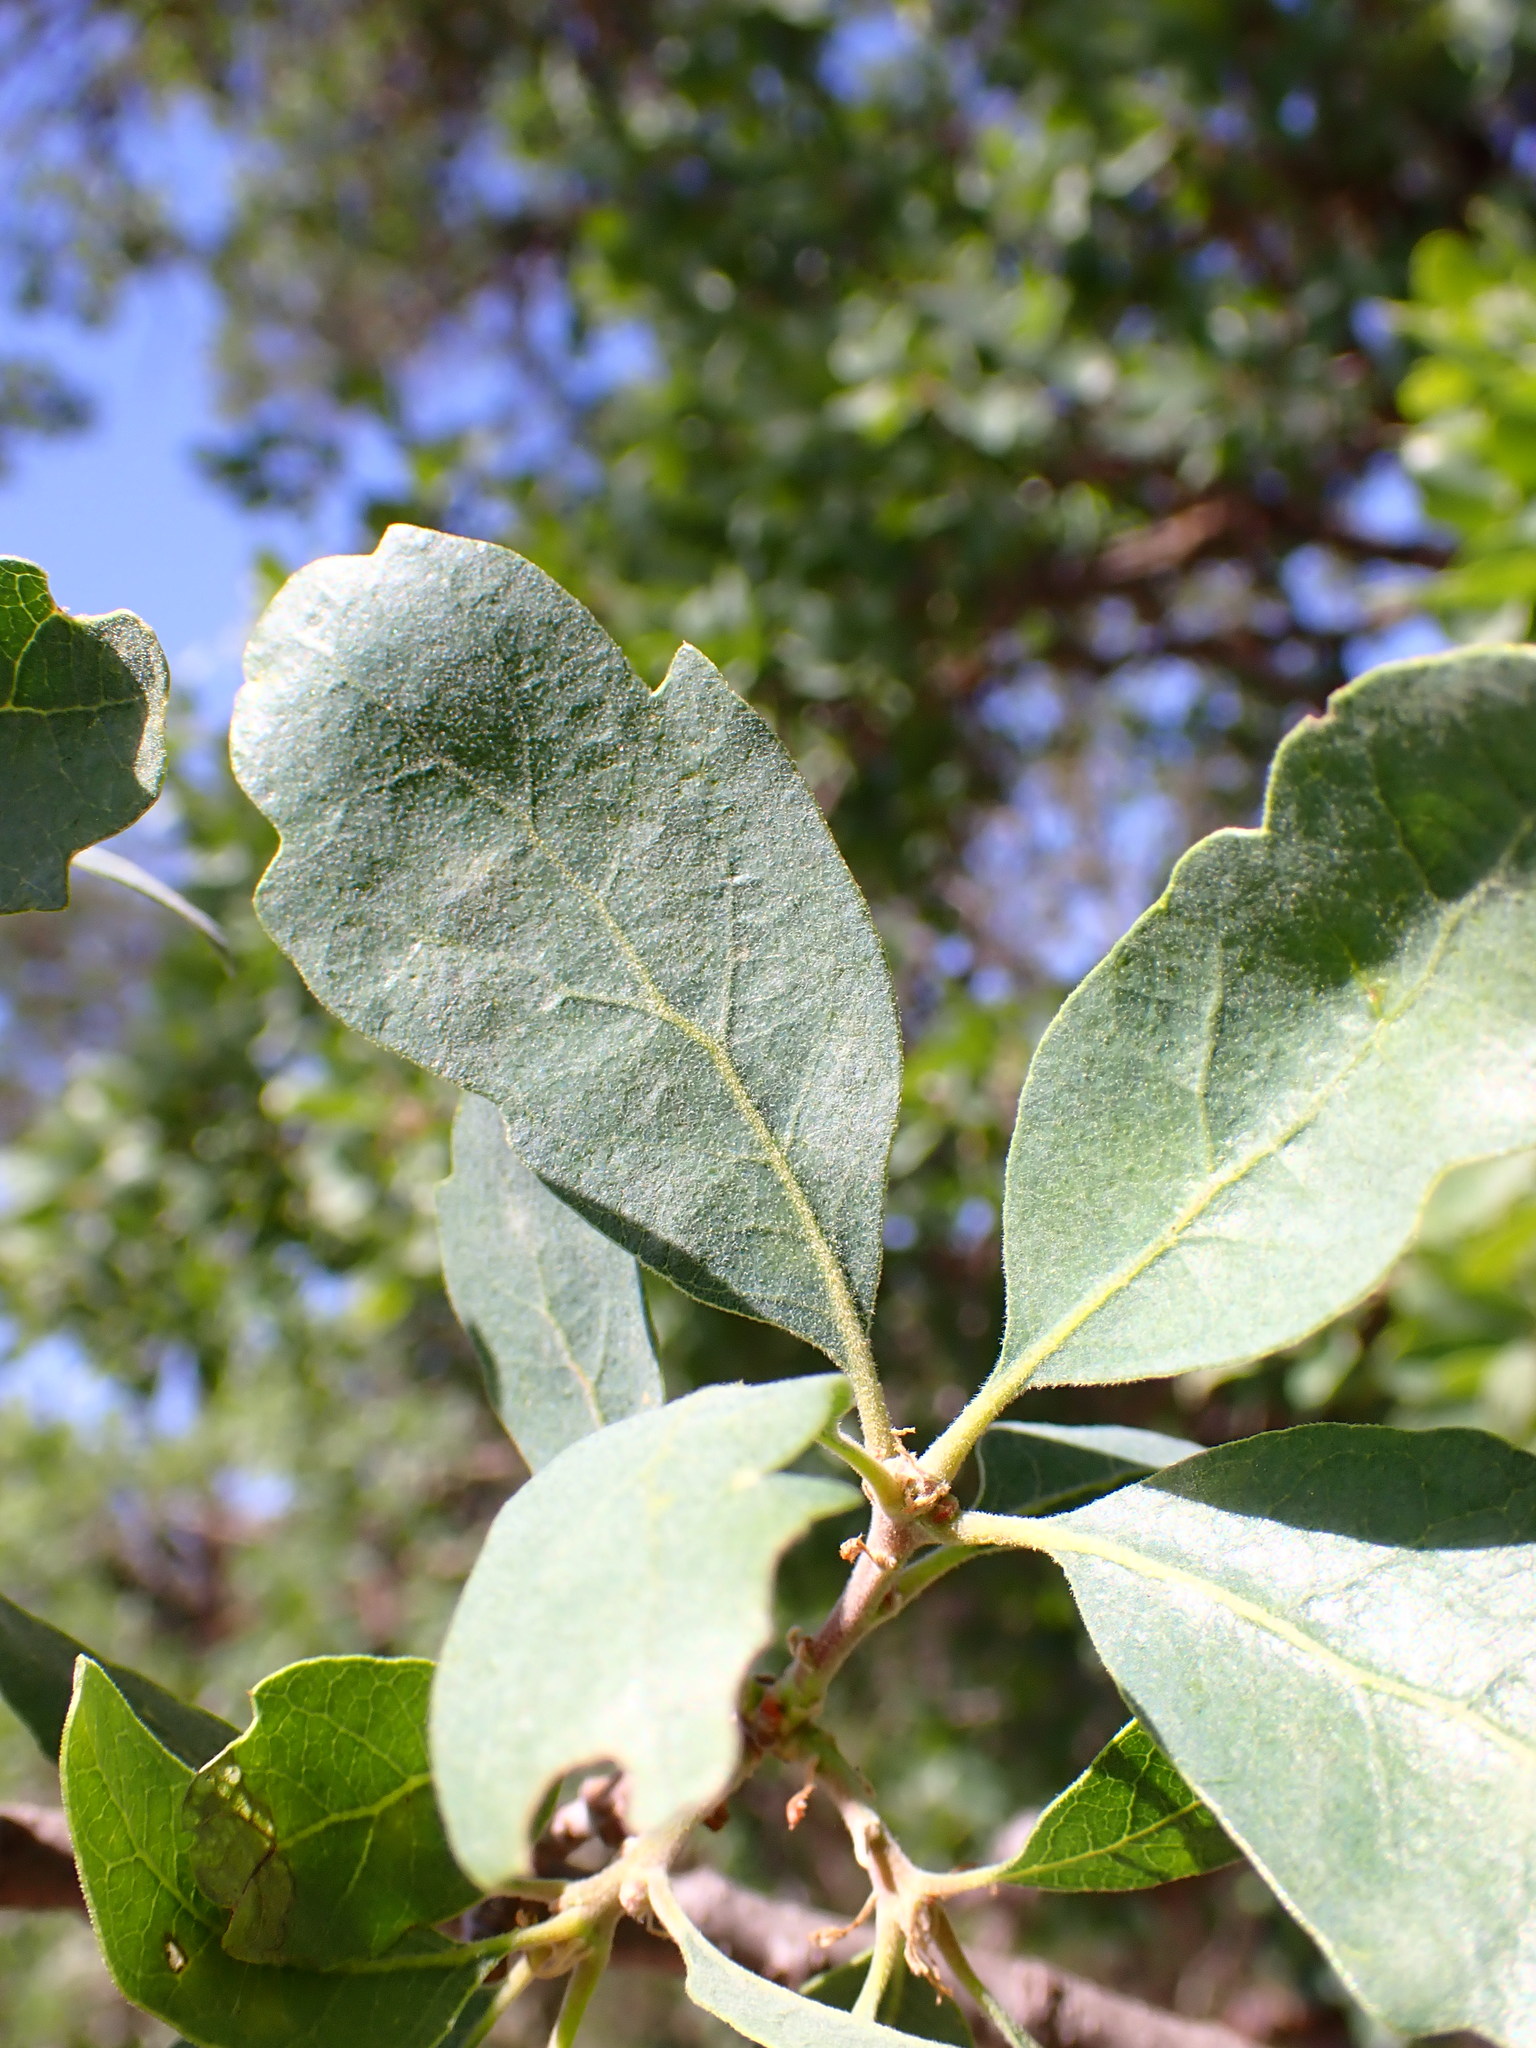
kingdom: Plantae
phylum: Tracheophyta
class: Magnoliopsida
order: Fagales
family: Fagaceae
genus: Quercus
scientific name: Quercus douglasii
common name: Blue oak
